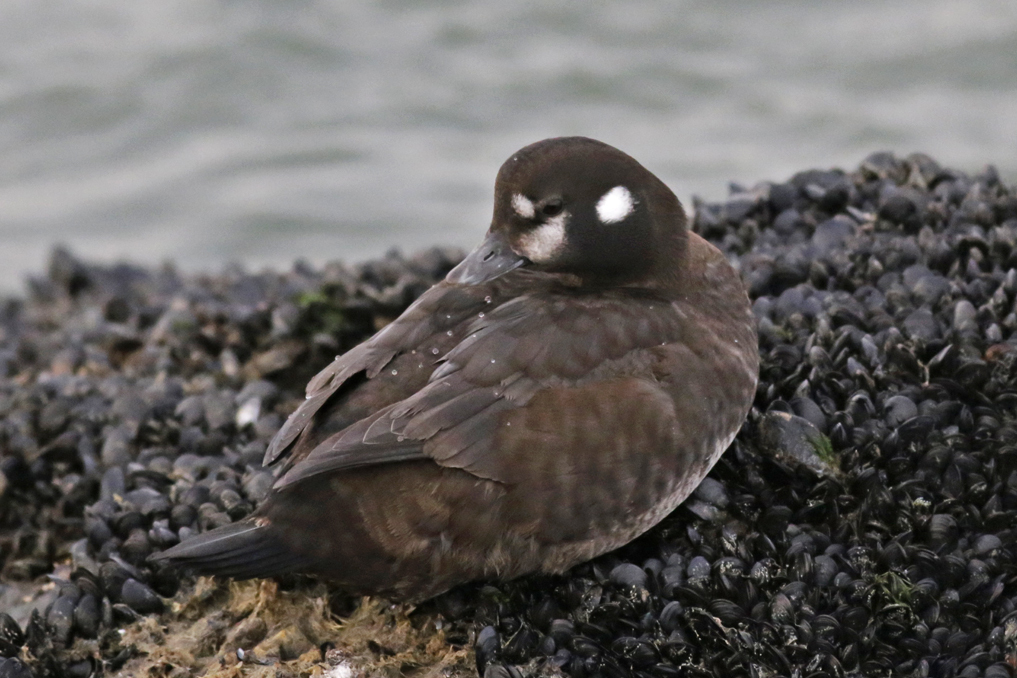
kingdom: Animalia
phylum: Chordata
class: Aves
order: Anseriformes
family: Anatidae
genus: Histrionicus
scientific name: Histrionicus histrionicus
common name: Harlequin duck
